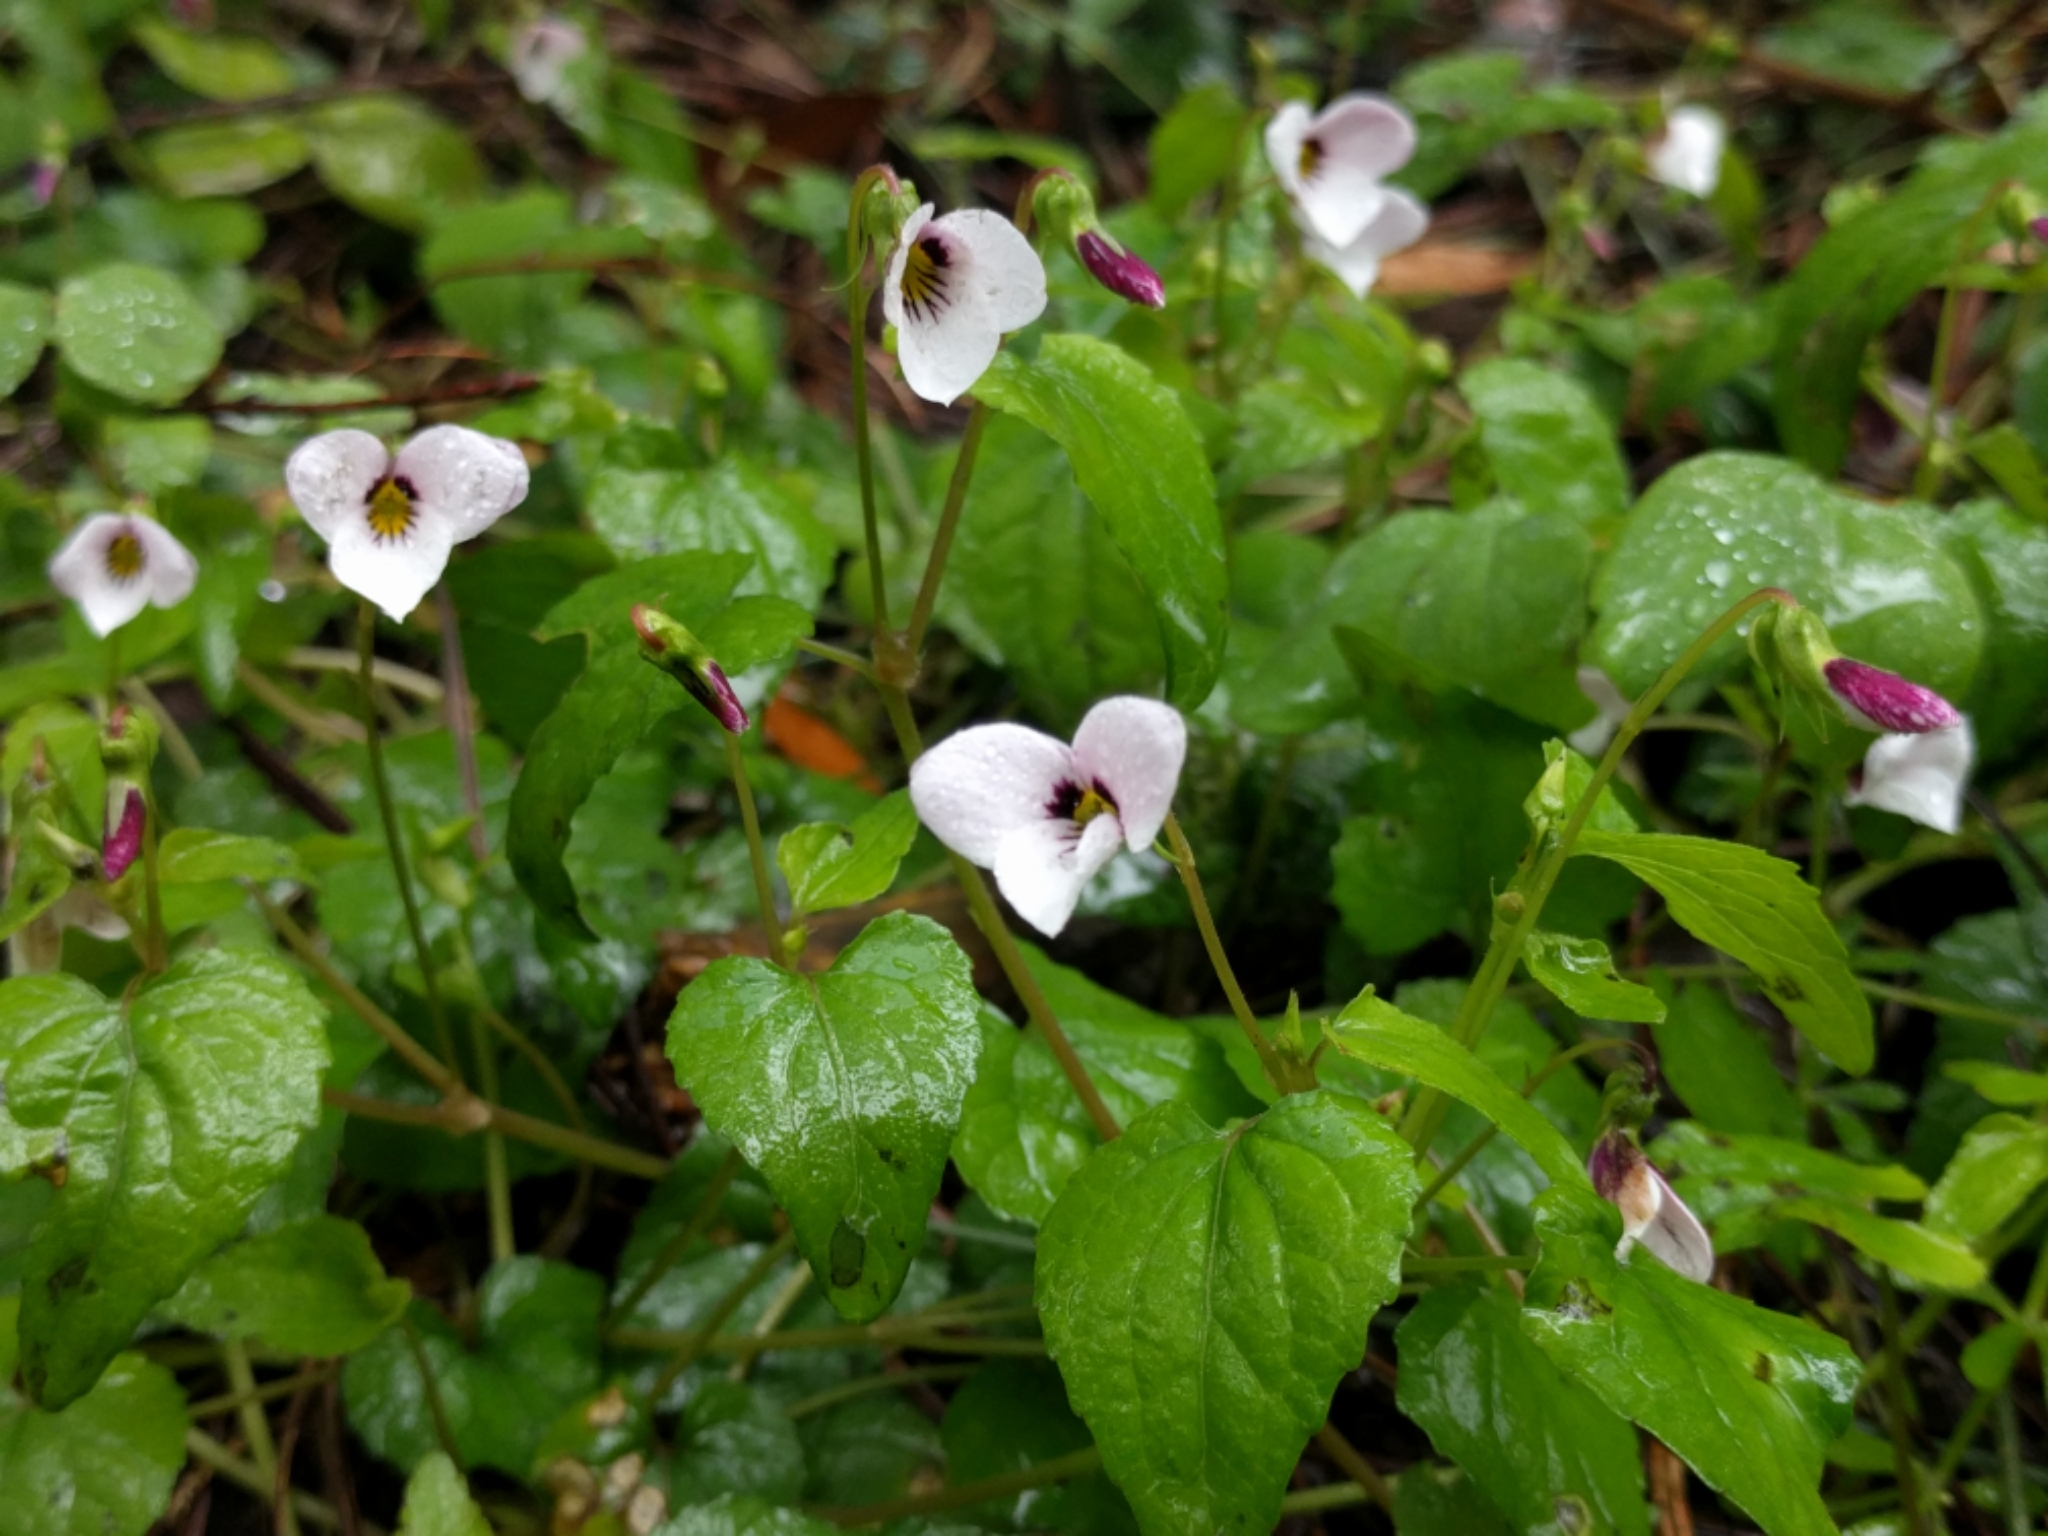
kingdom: Plantae
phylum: Tracheophyta
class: Magnoliopsida
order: Malpighiales
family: Violaceae
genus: Viola
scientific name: Viola ocellata
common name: Western heart's ease
